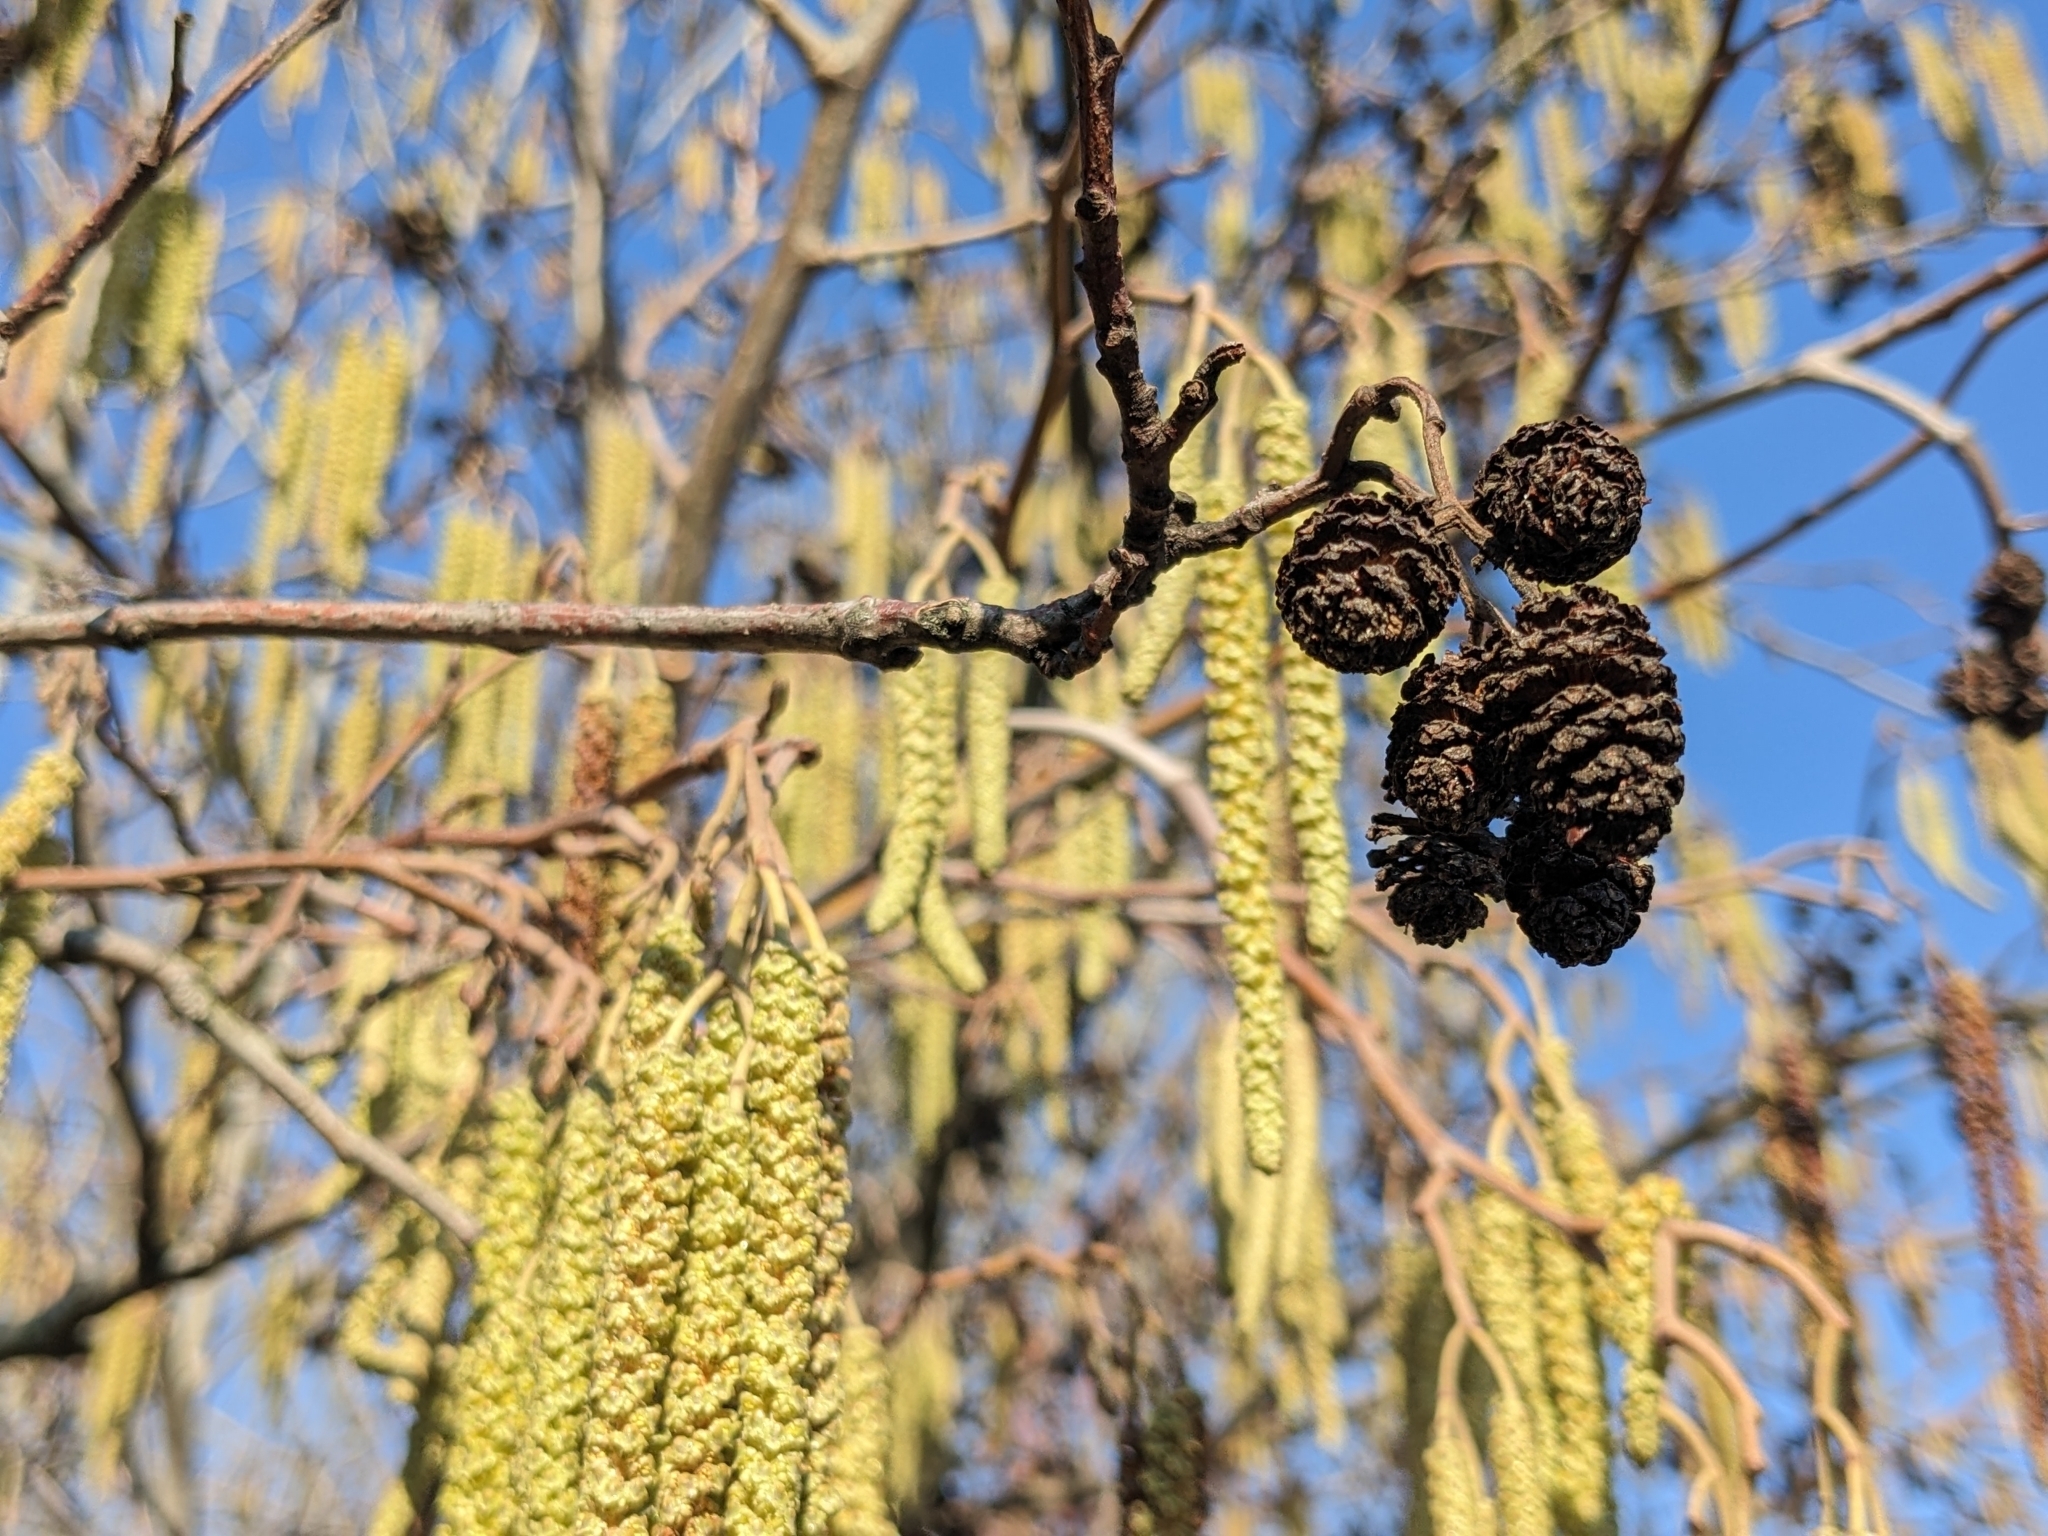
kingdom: Plantae
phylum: Tracheophyta
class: Magnoliopsida
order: Fagales
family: Betulaceae
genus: Alnus
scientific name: Alnus glutinosa
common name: Black alder
